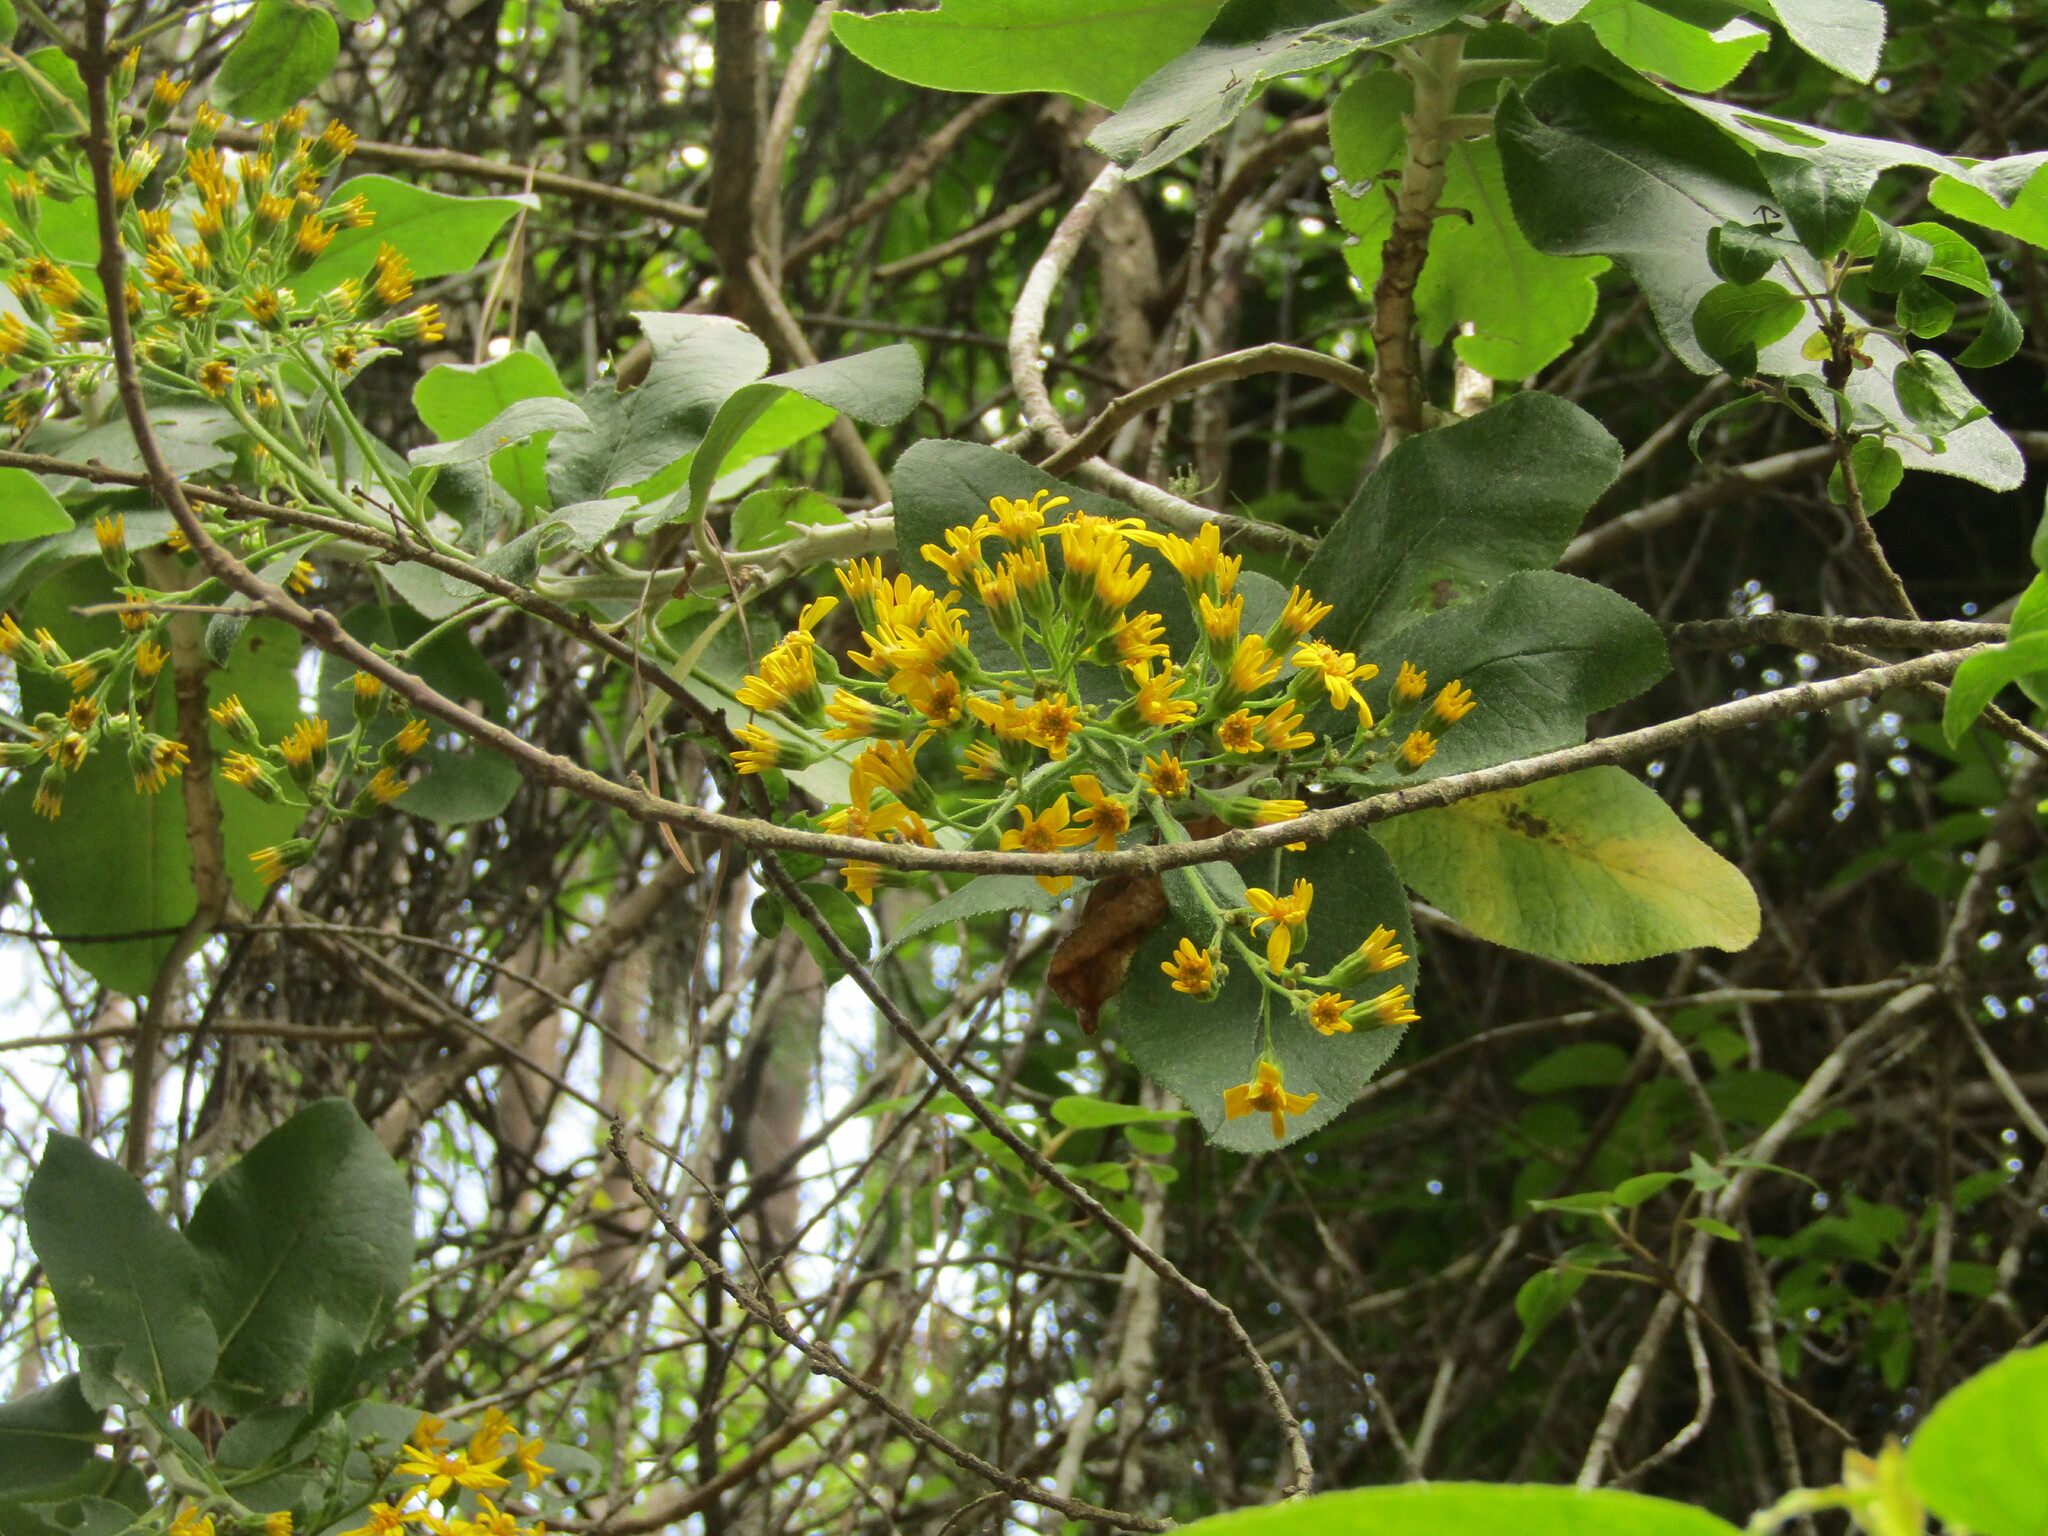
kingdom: Plantae
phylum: Tracheophyta
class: Magnoliopsida
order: Asterales
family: Asteraceae
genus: Acrisione
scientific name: Acrisione denticulata
